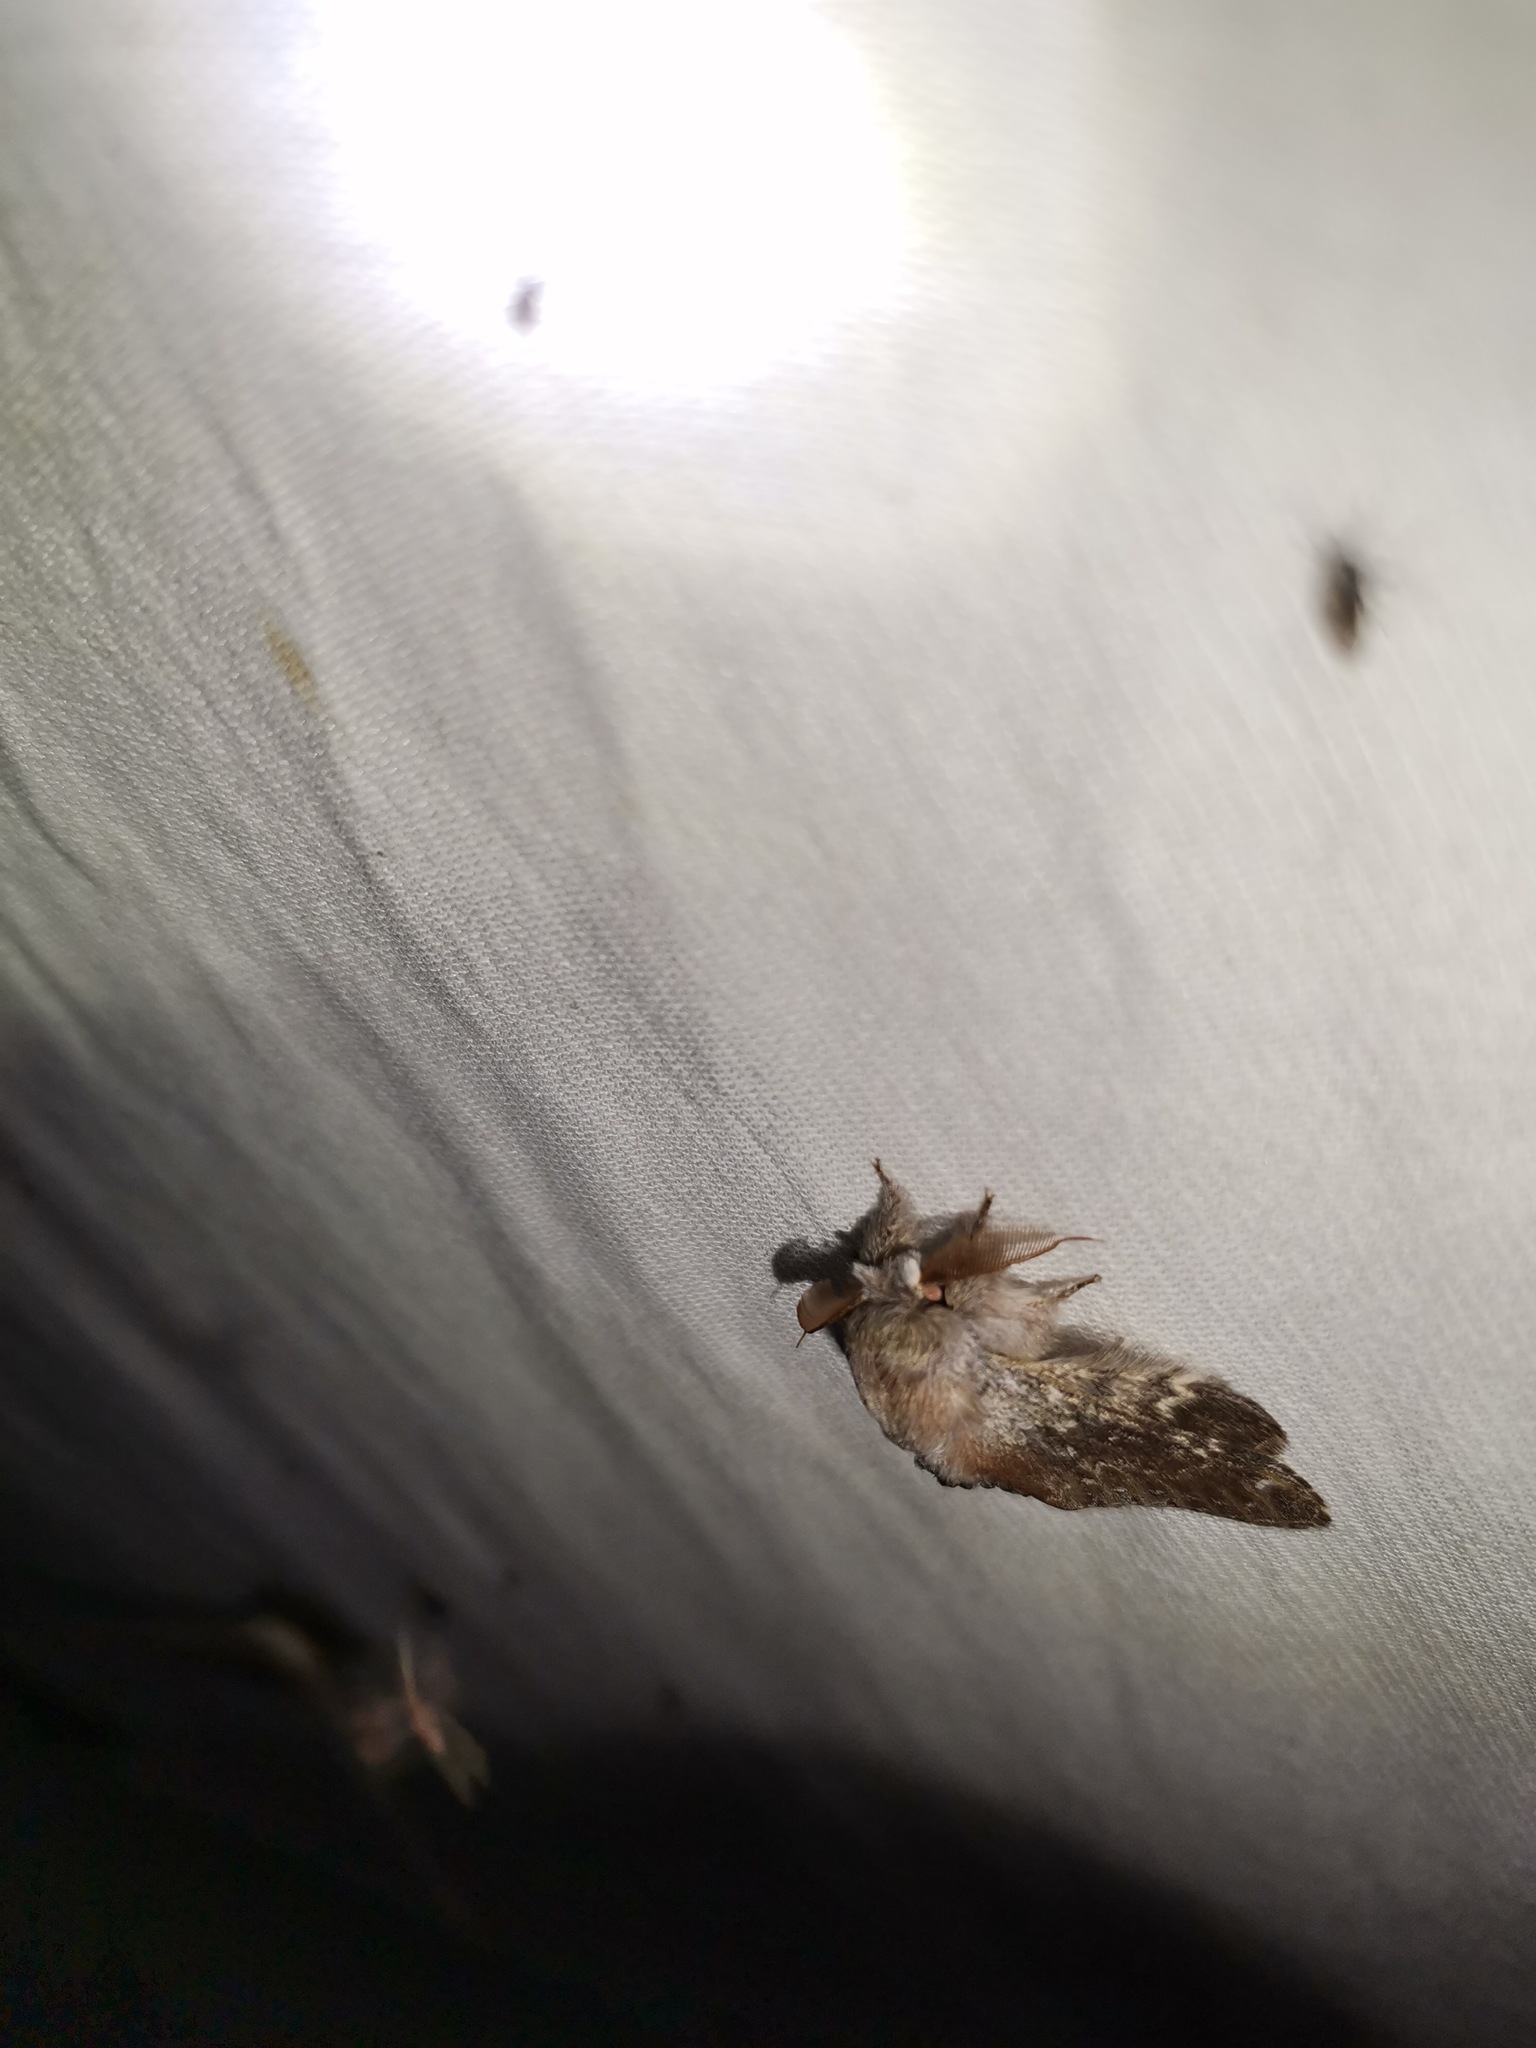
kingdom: Animalia
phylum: Arthropoda
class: Insecta
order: Lepidoptera
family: Notodontidae
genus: Stauropus
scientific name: Stauropus fagi
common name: Lobster moth
